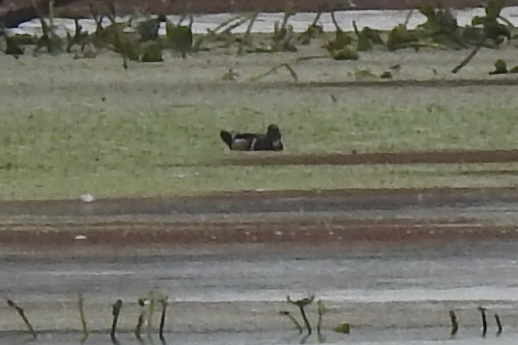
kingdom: Animalia
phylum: Chordata
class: Aves
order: Anseriformes
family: Anatidae
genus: Aix
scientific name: Aix sponsa
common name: Wood duck
